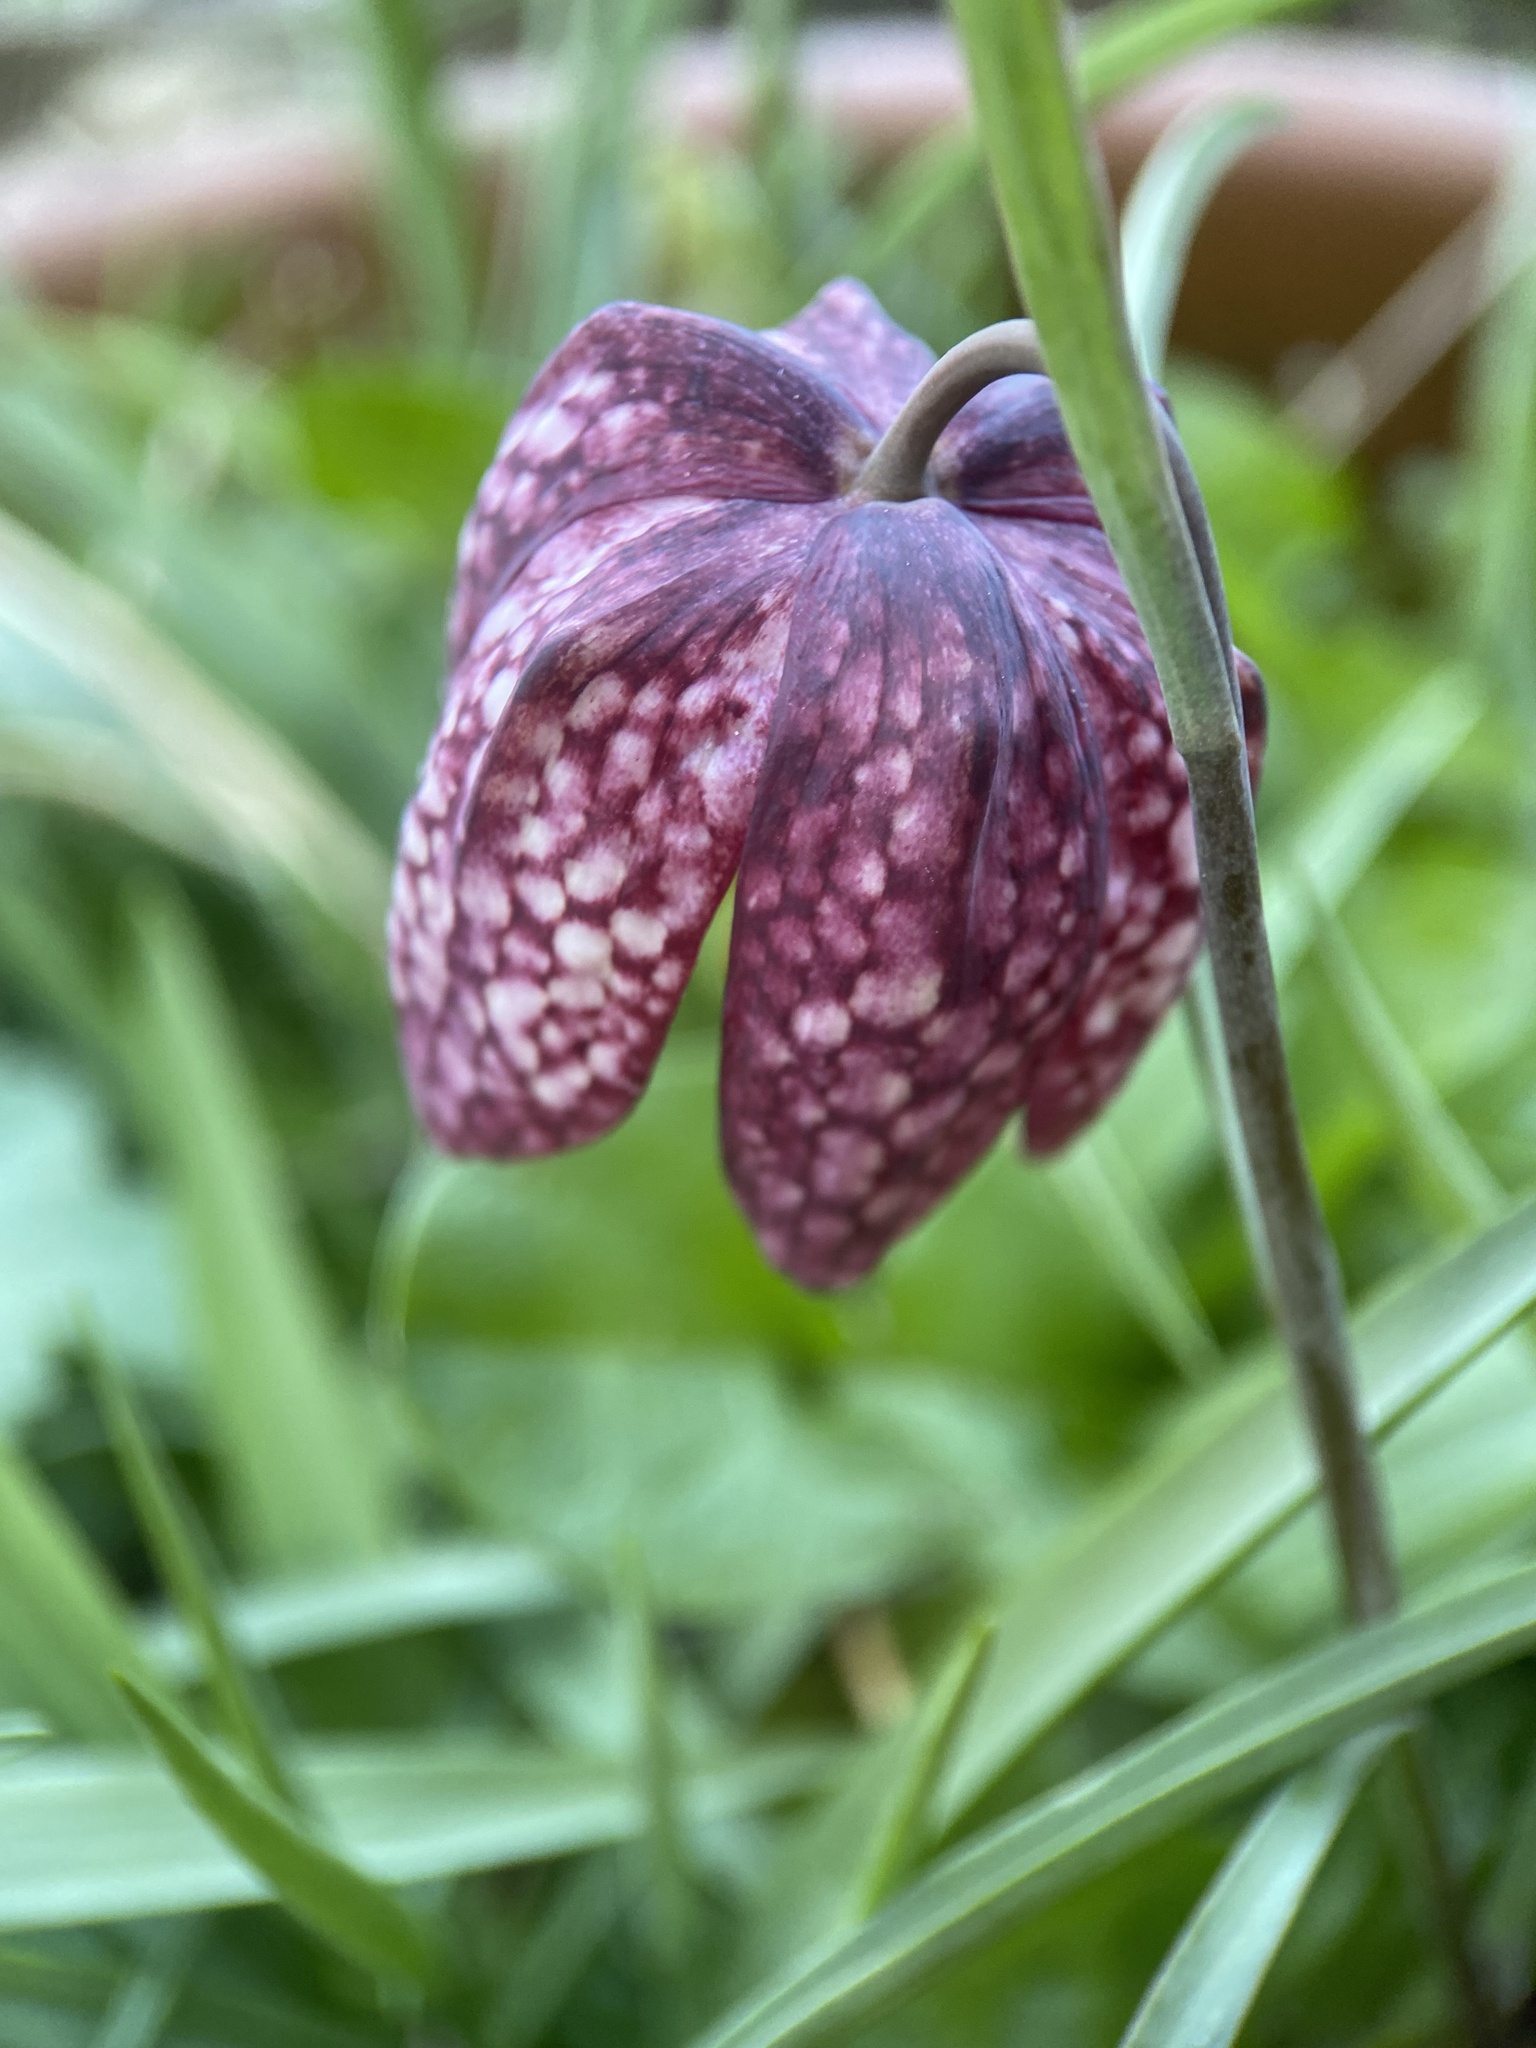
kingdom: Plantae
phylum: Tracheophyta
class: Liliopsida
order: Liliales
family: Liliaceae
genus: Fritillaria
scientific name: Fritillaria meleagris
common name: Fritillary
